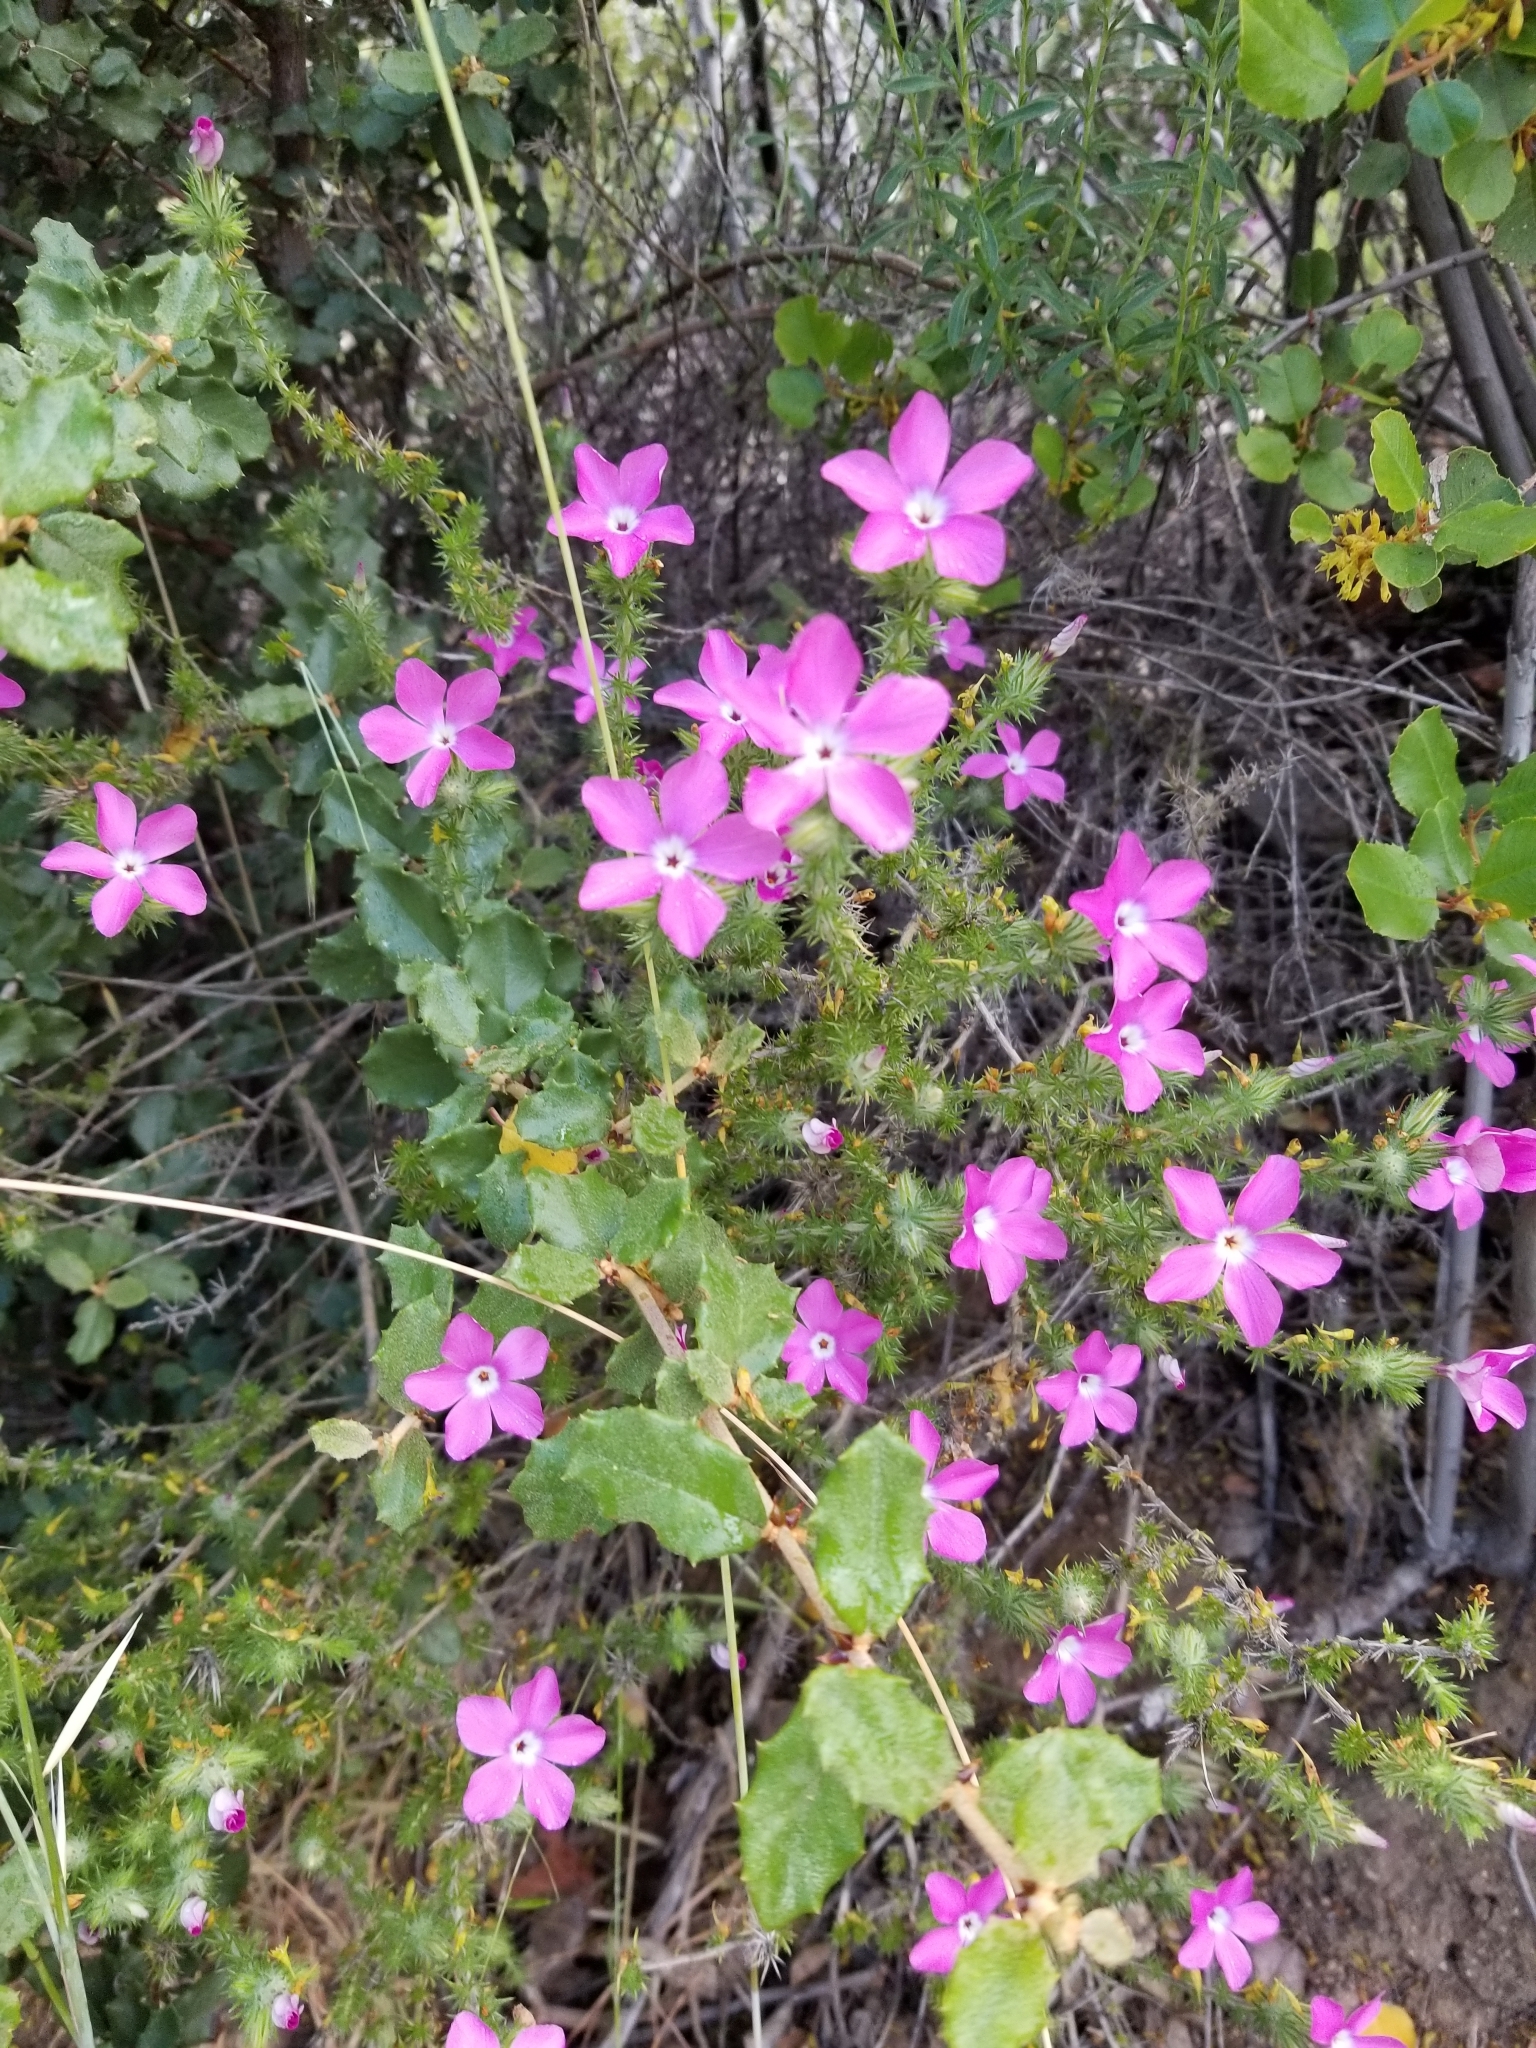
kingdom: Plantae
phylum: Tracheophyta
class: Magnoliopsida
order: Ericales
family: Polemoniaceae
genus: Linanthus
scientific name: Linanthus californicus
